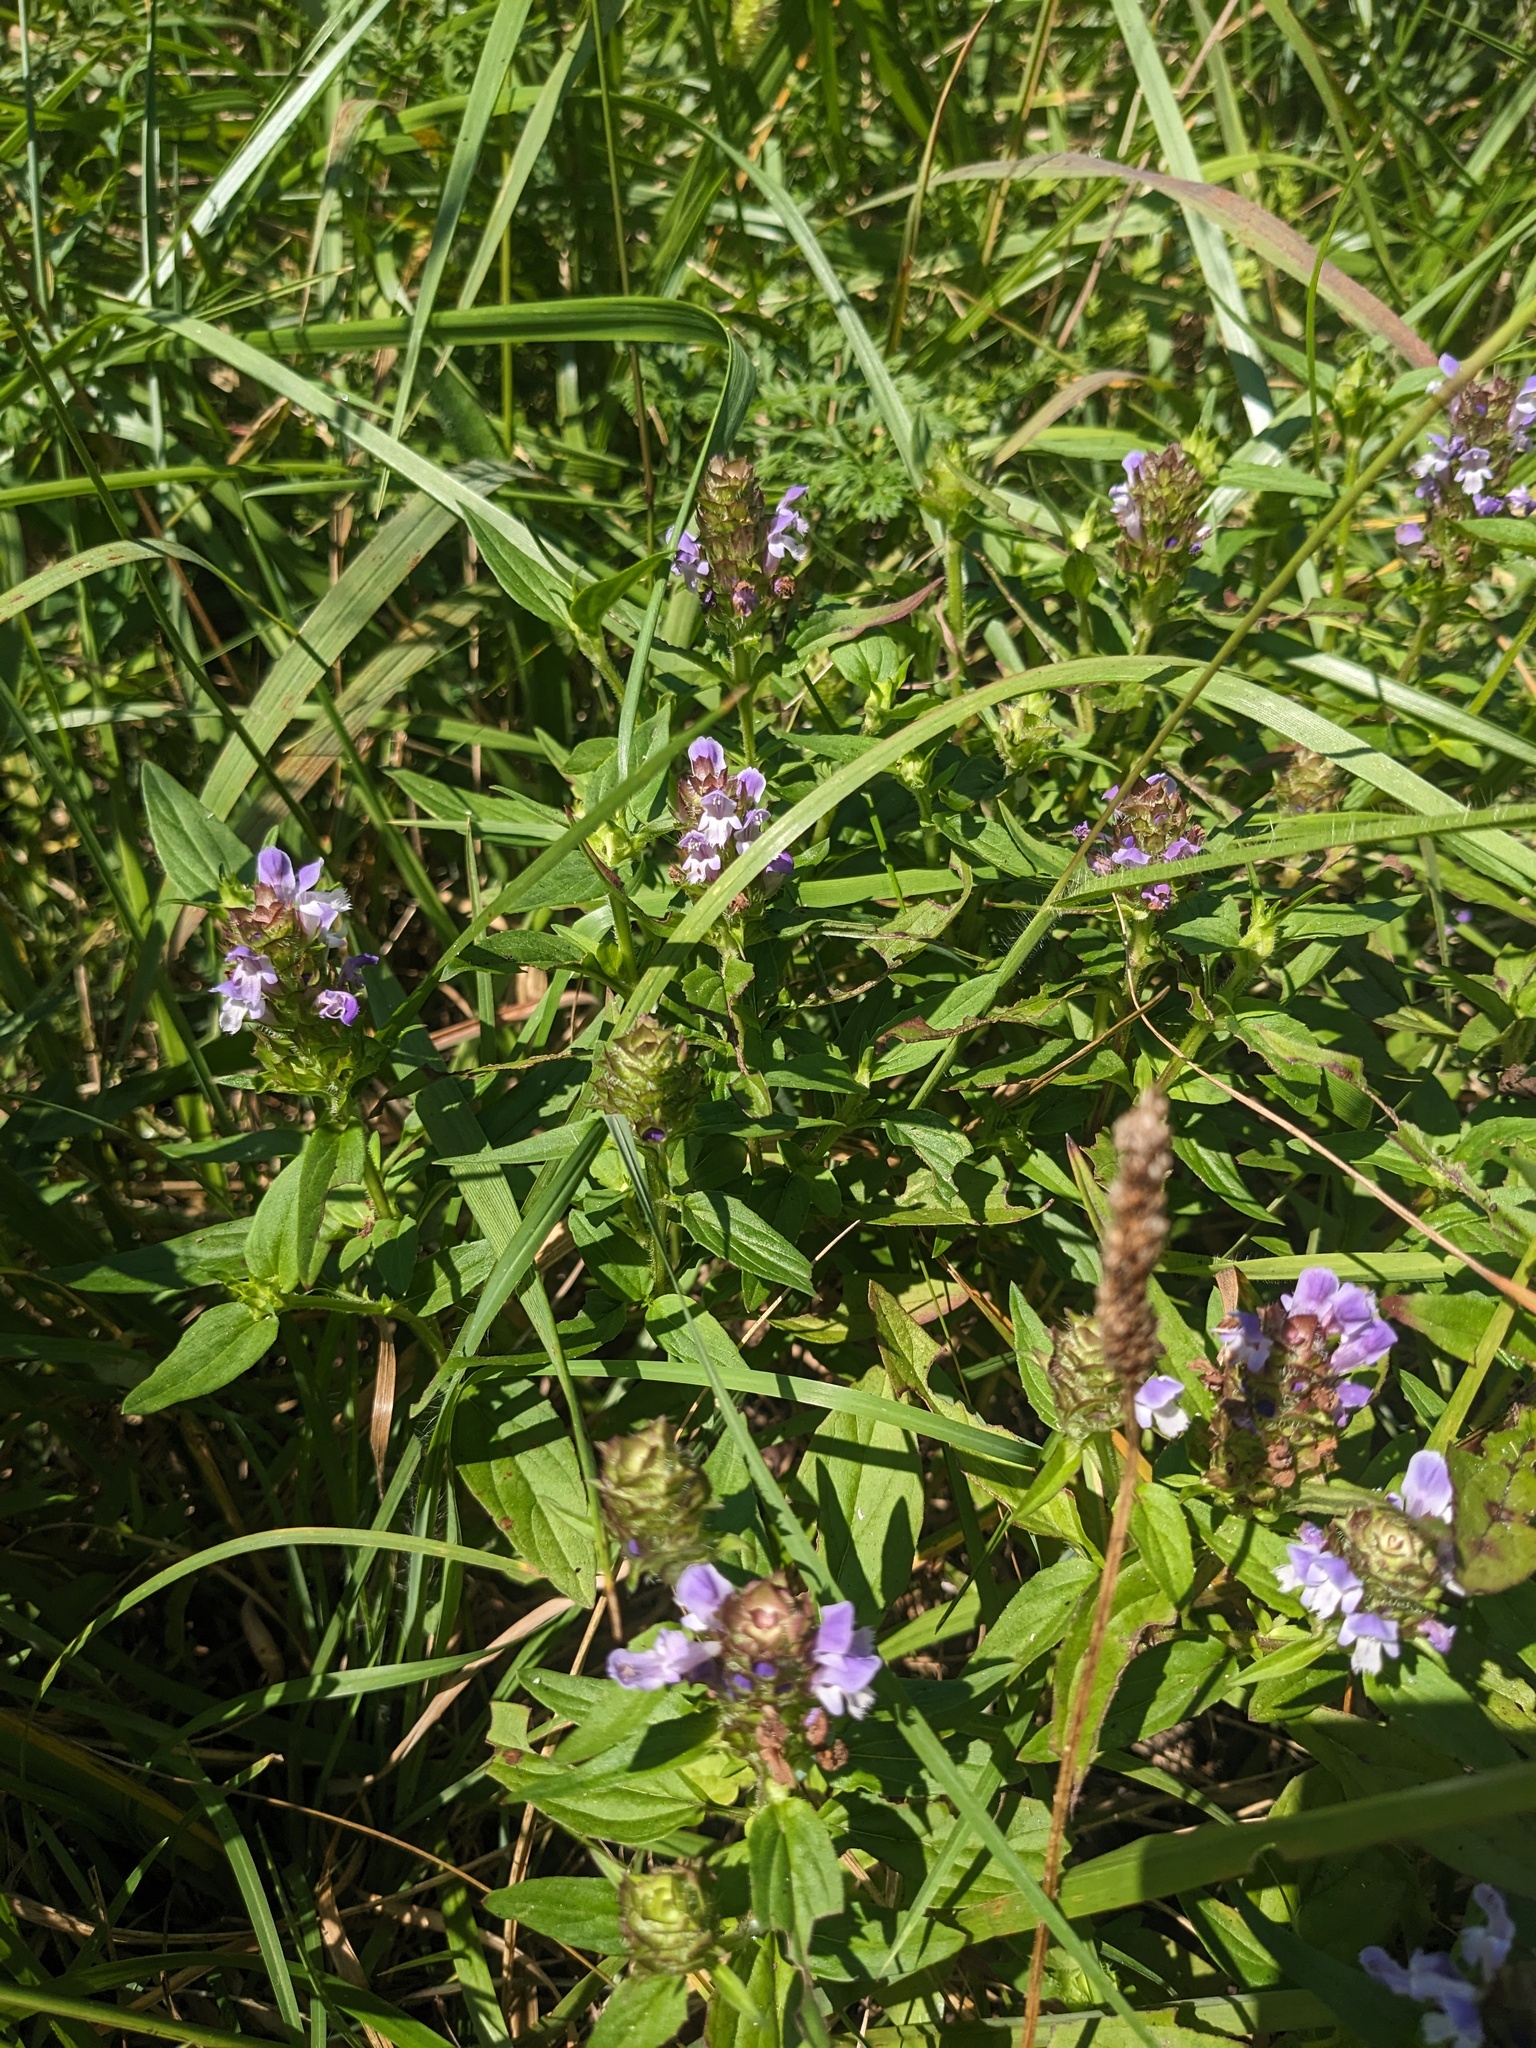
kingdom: Plantae
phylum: Tracheophyta
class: Magnoliopsida
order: Lamiales
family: Lamiaceae
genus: Prunella
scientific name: Prunella vulgaris
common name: Heal-all
